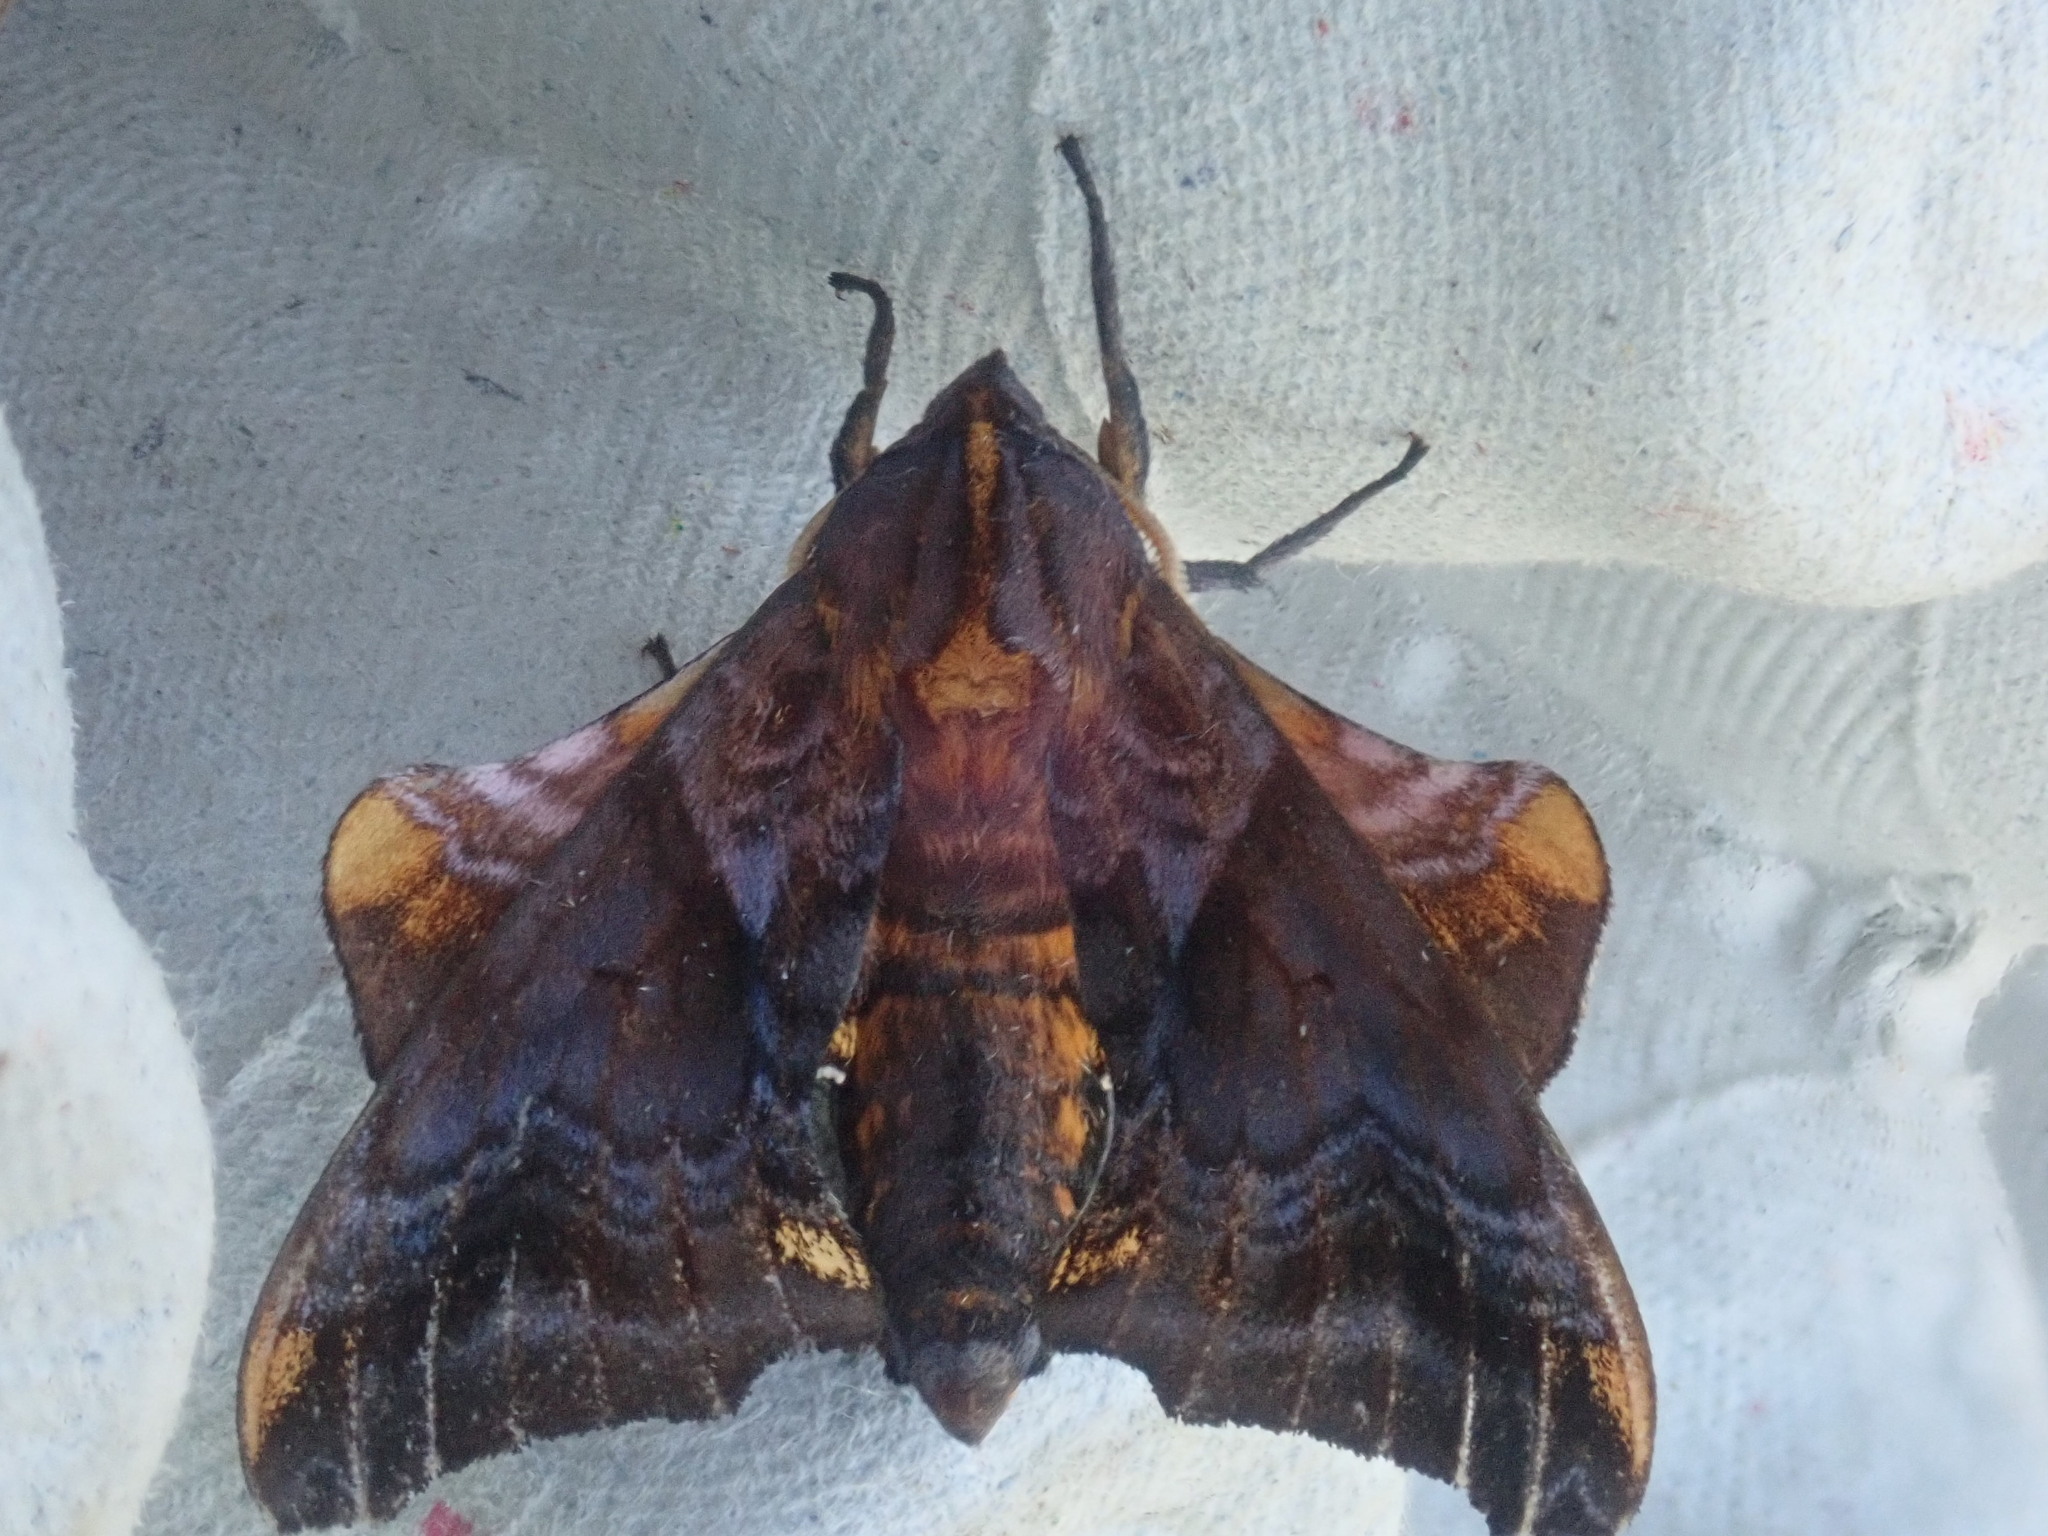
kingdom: Animalia
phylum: Arthropoda
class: Insecta
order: Lepidoptera
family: Sphingidae
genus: Paonias
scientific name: Paonias myops
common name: Small-eyed sphinx
